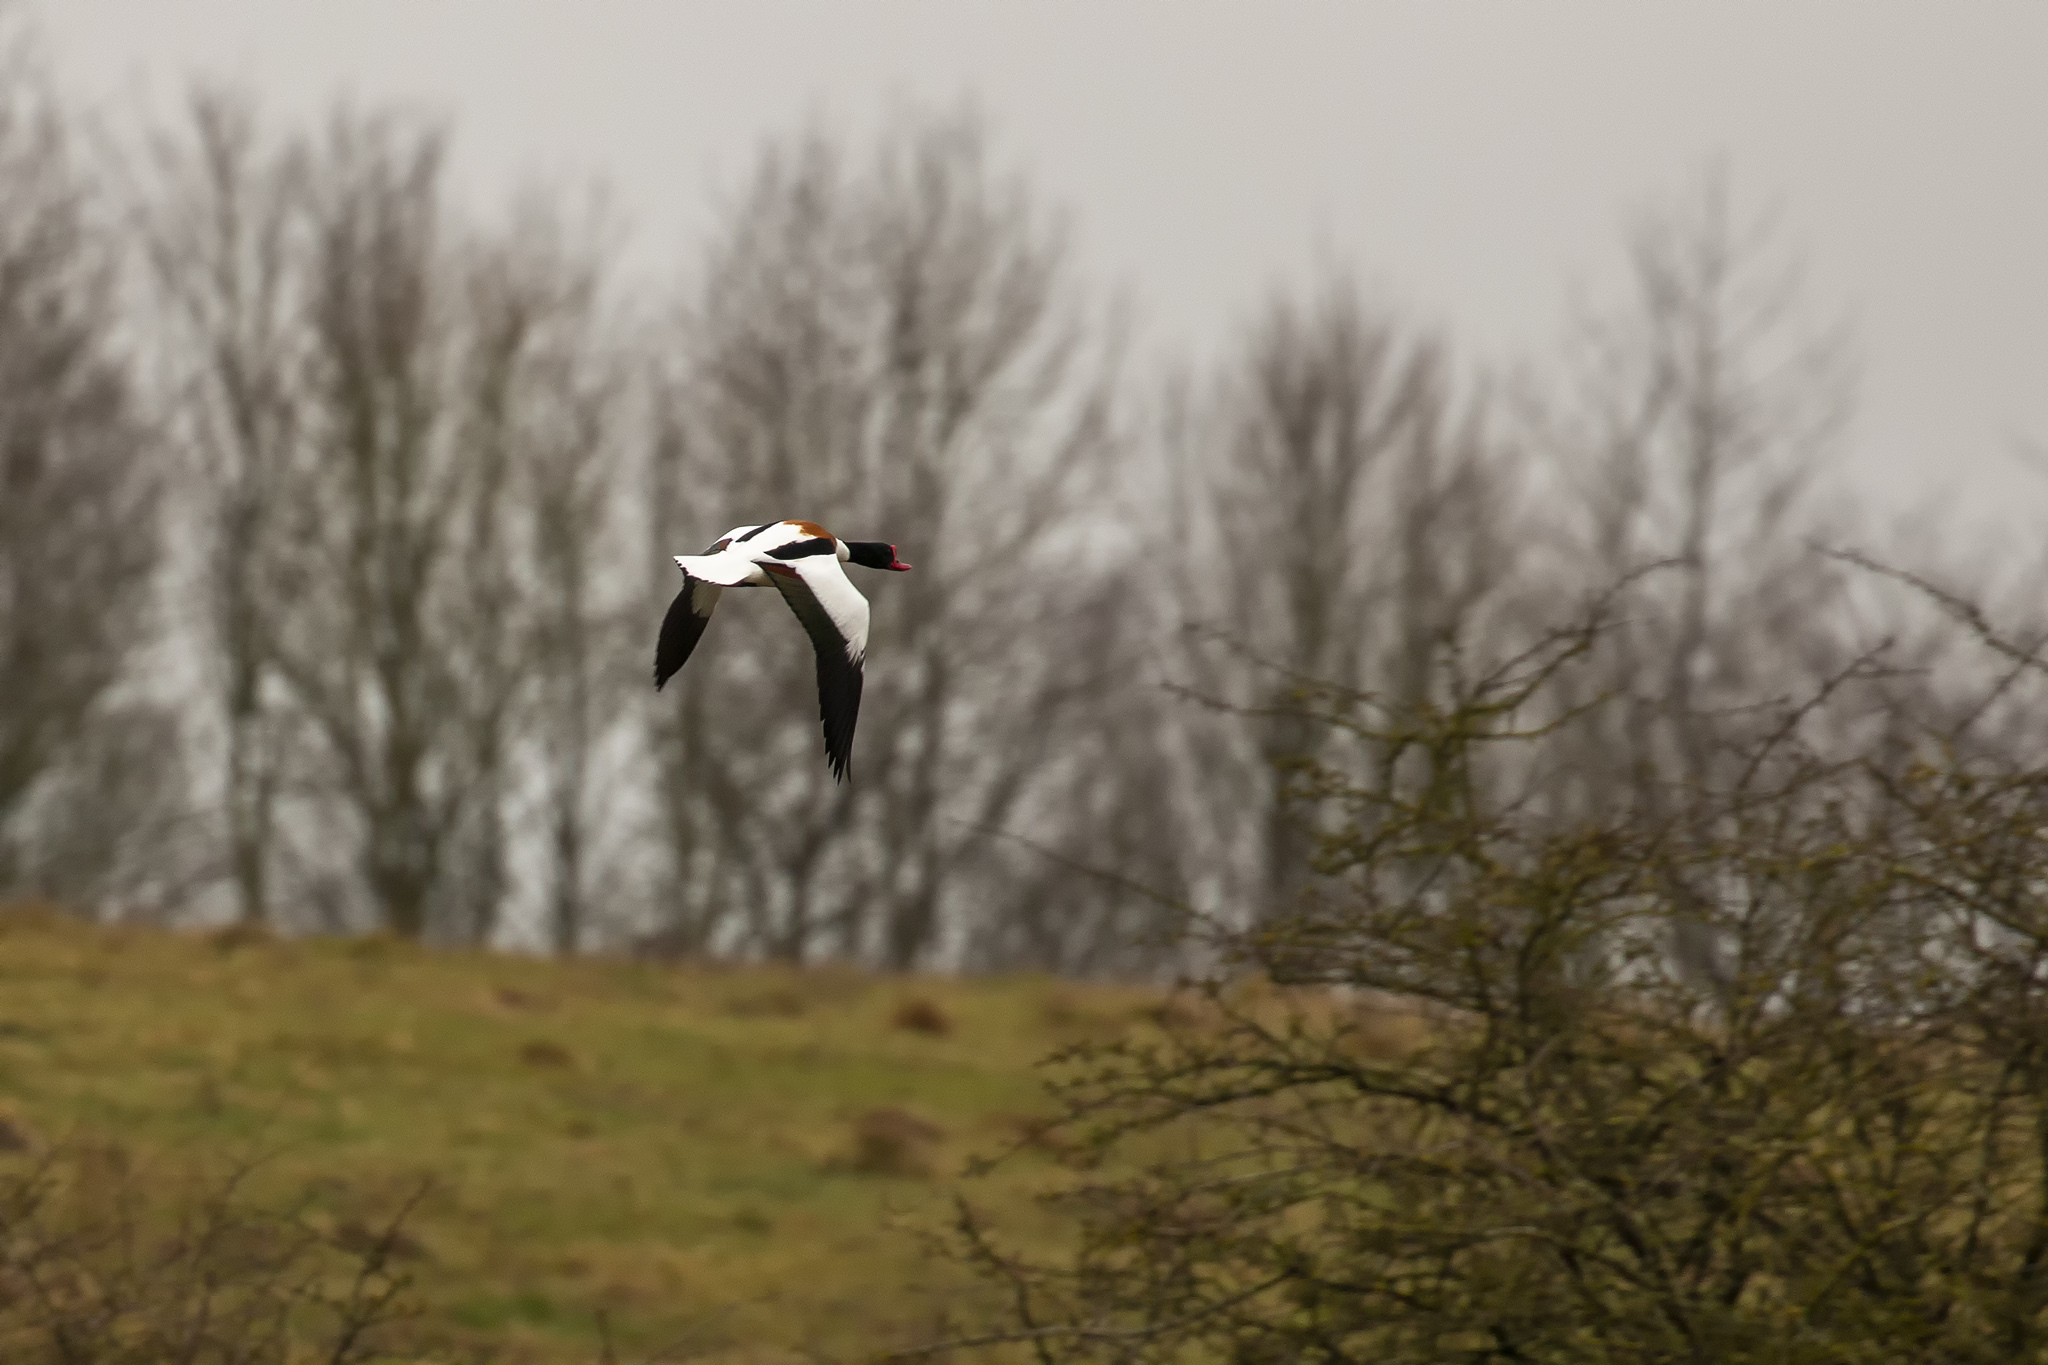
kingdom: Animalia
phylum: Chordata
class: Aves
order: Anseriformes
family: Anatidae
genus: Tadorna
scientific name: Tadorna tadorna
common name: Common shelduck
